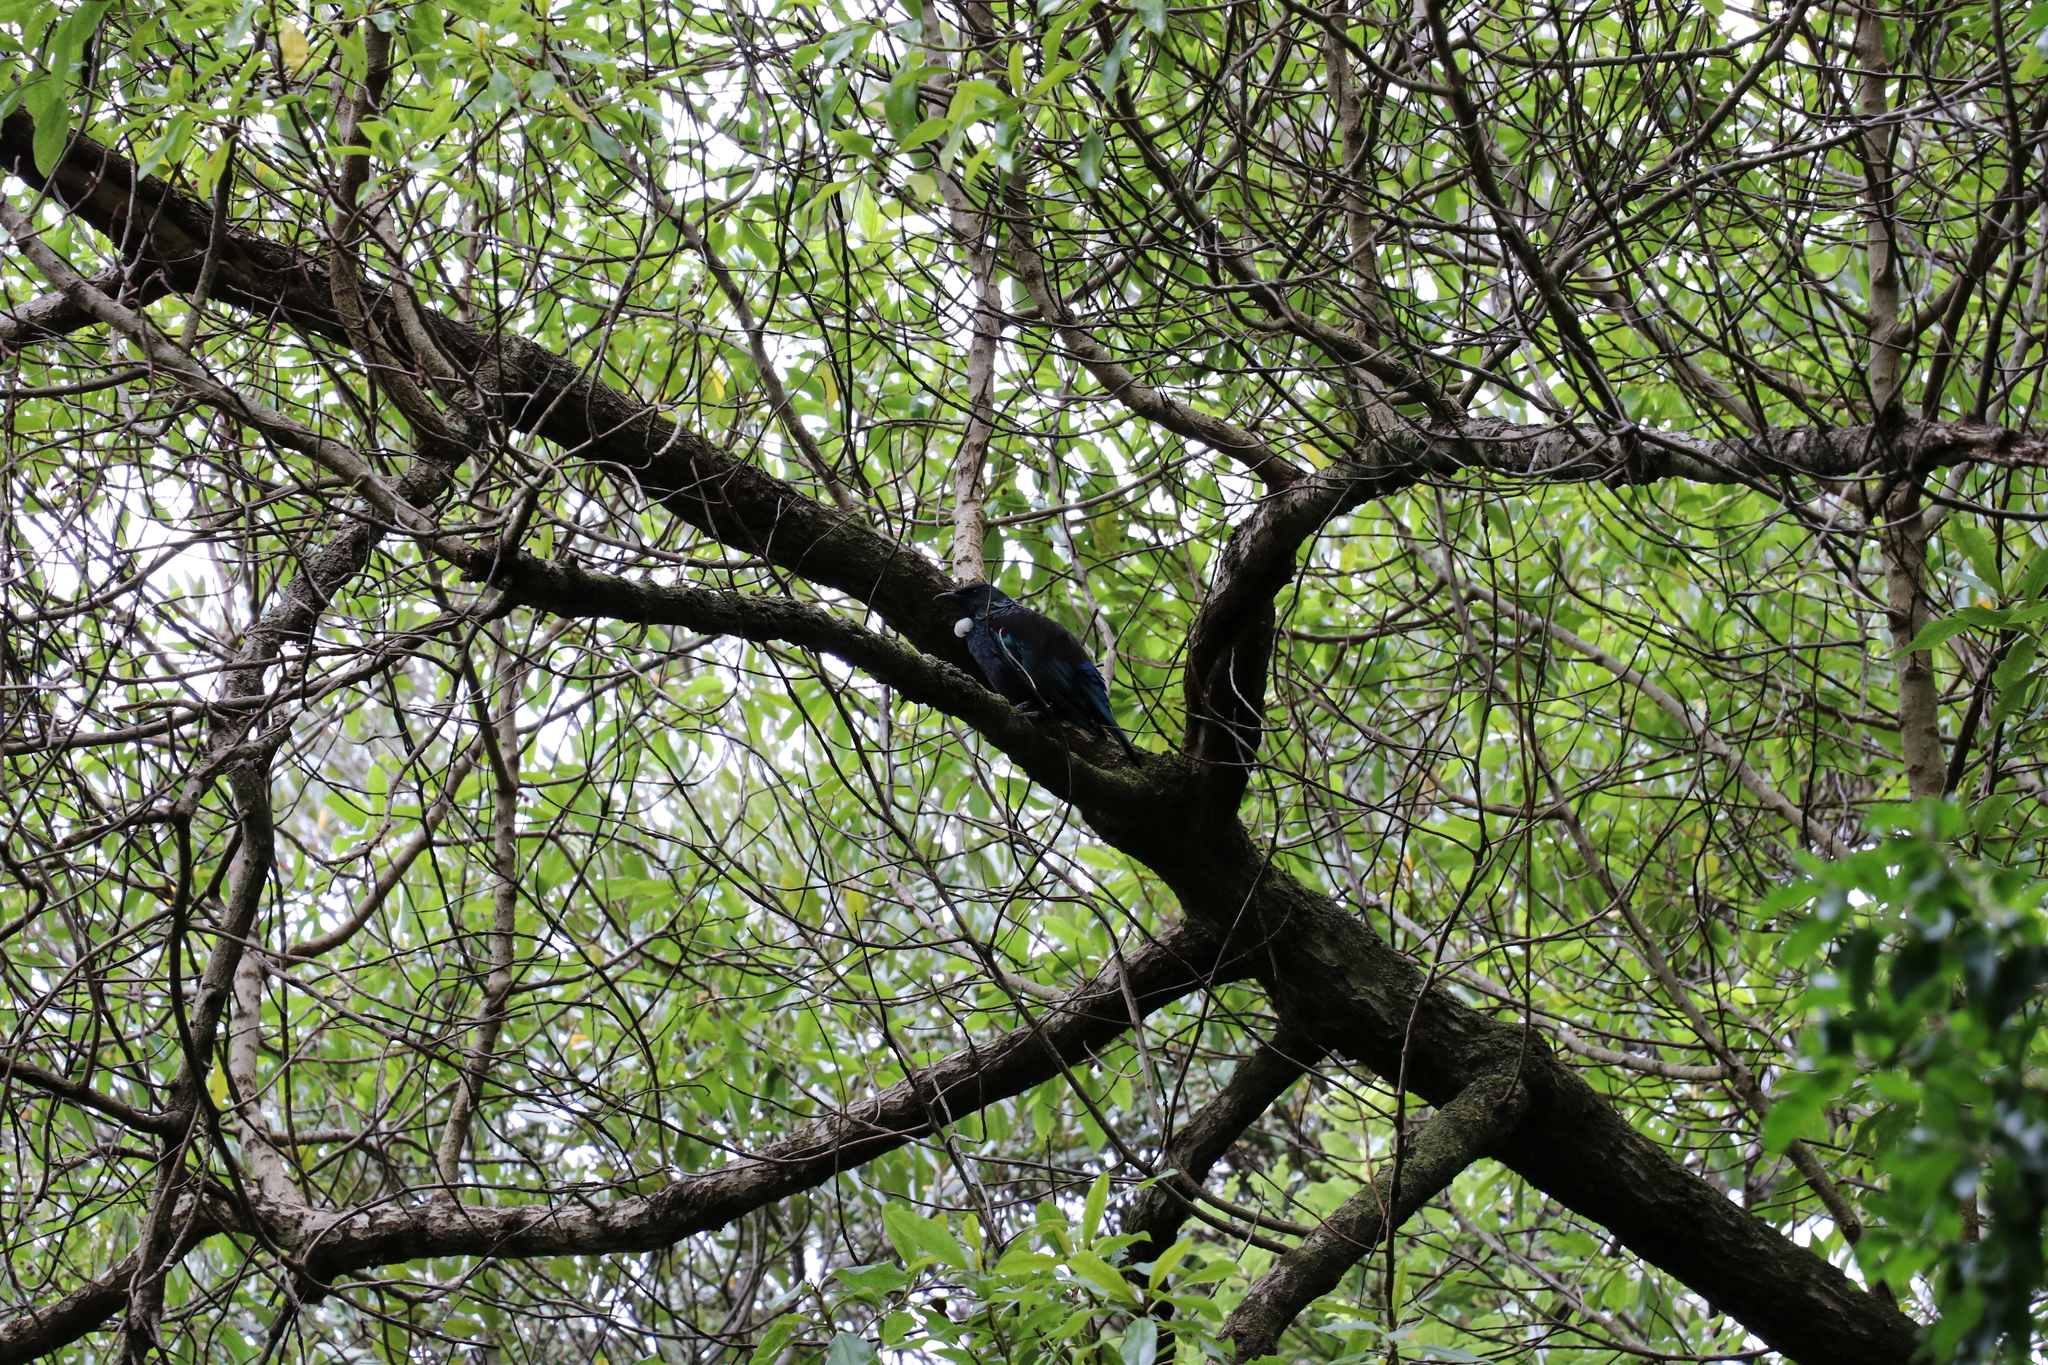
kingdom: Animalia
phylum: Chordata
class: Aves
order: Passeriformes
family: Meliphagidae
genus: Prosthemadera
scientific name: Prosthemadera novaeseelandiae
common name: Tui
